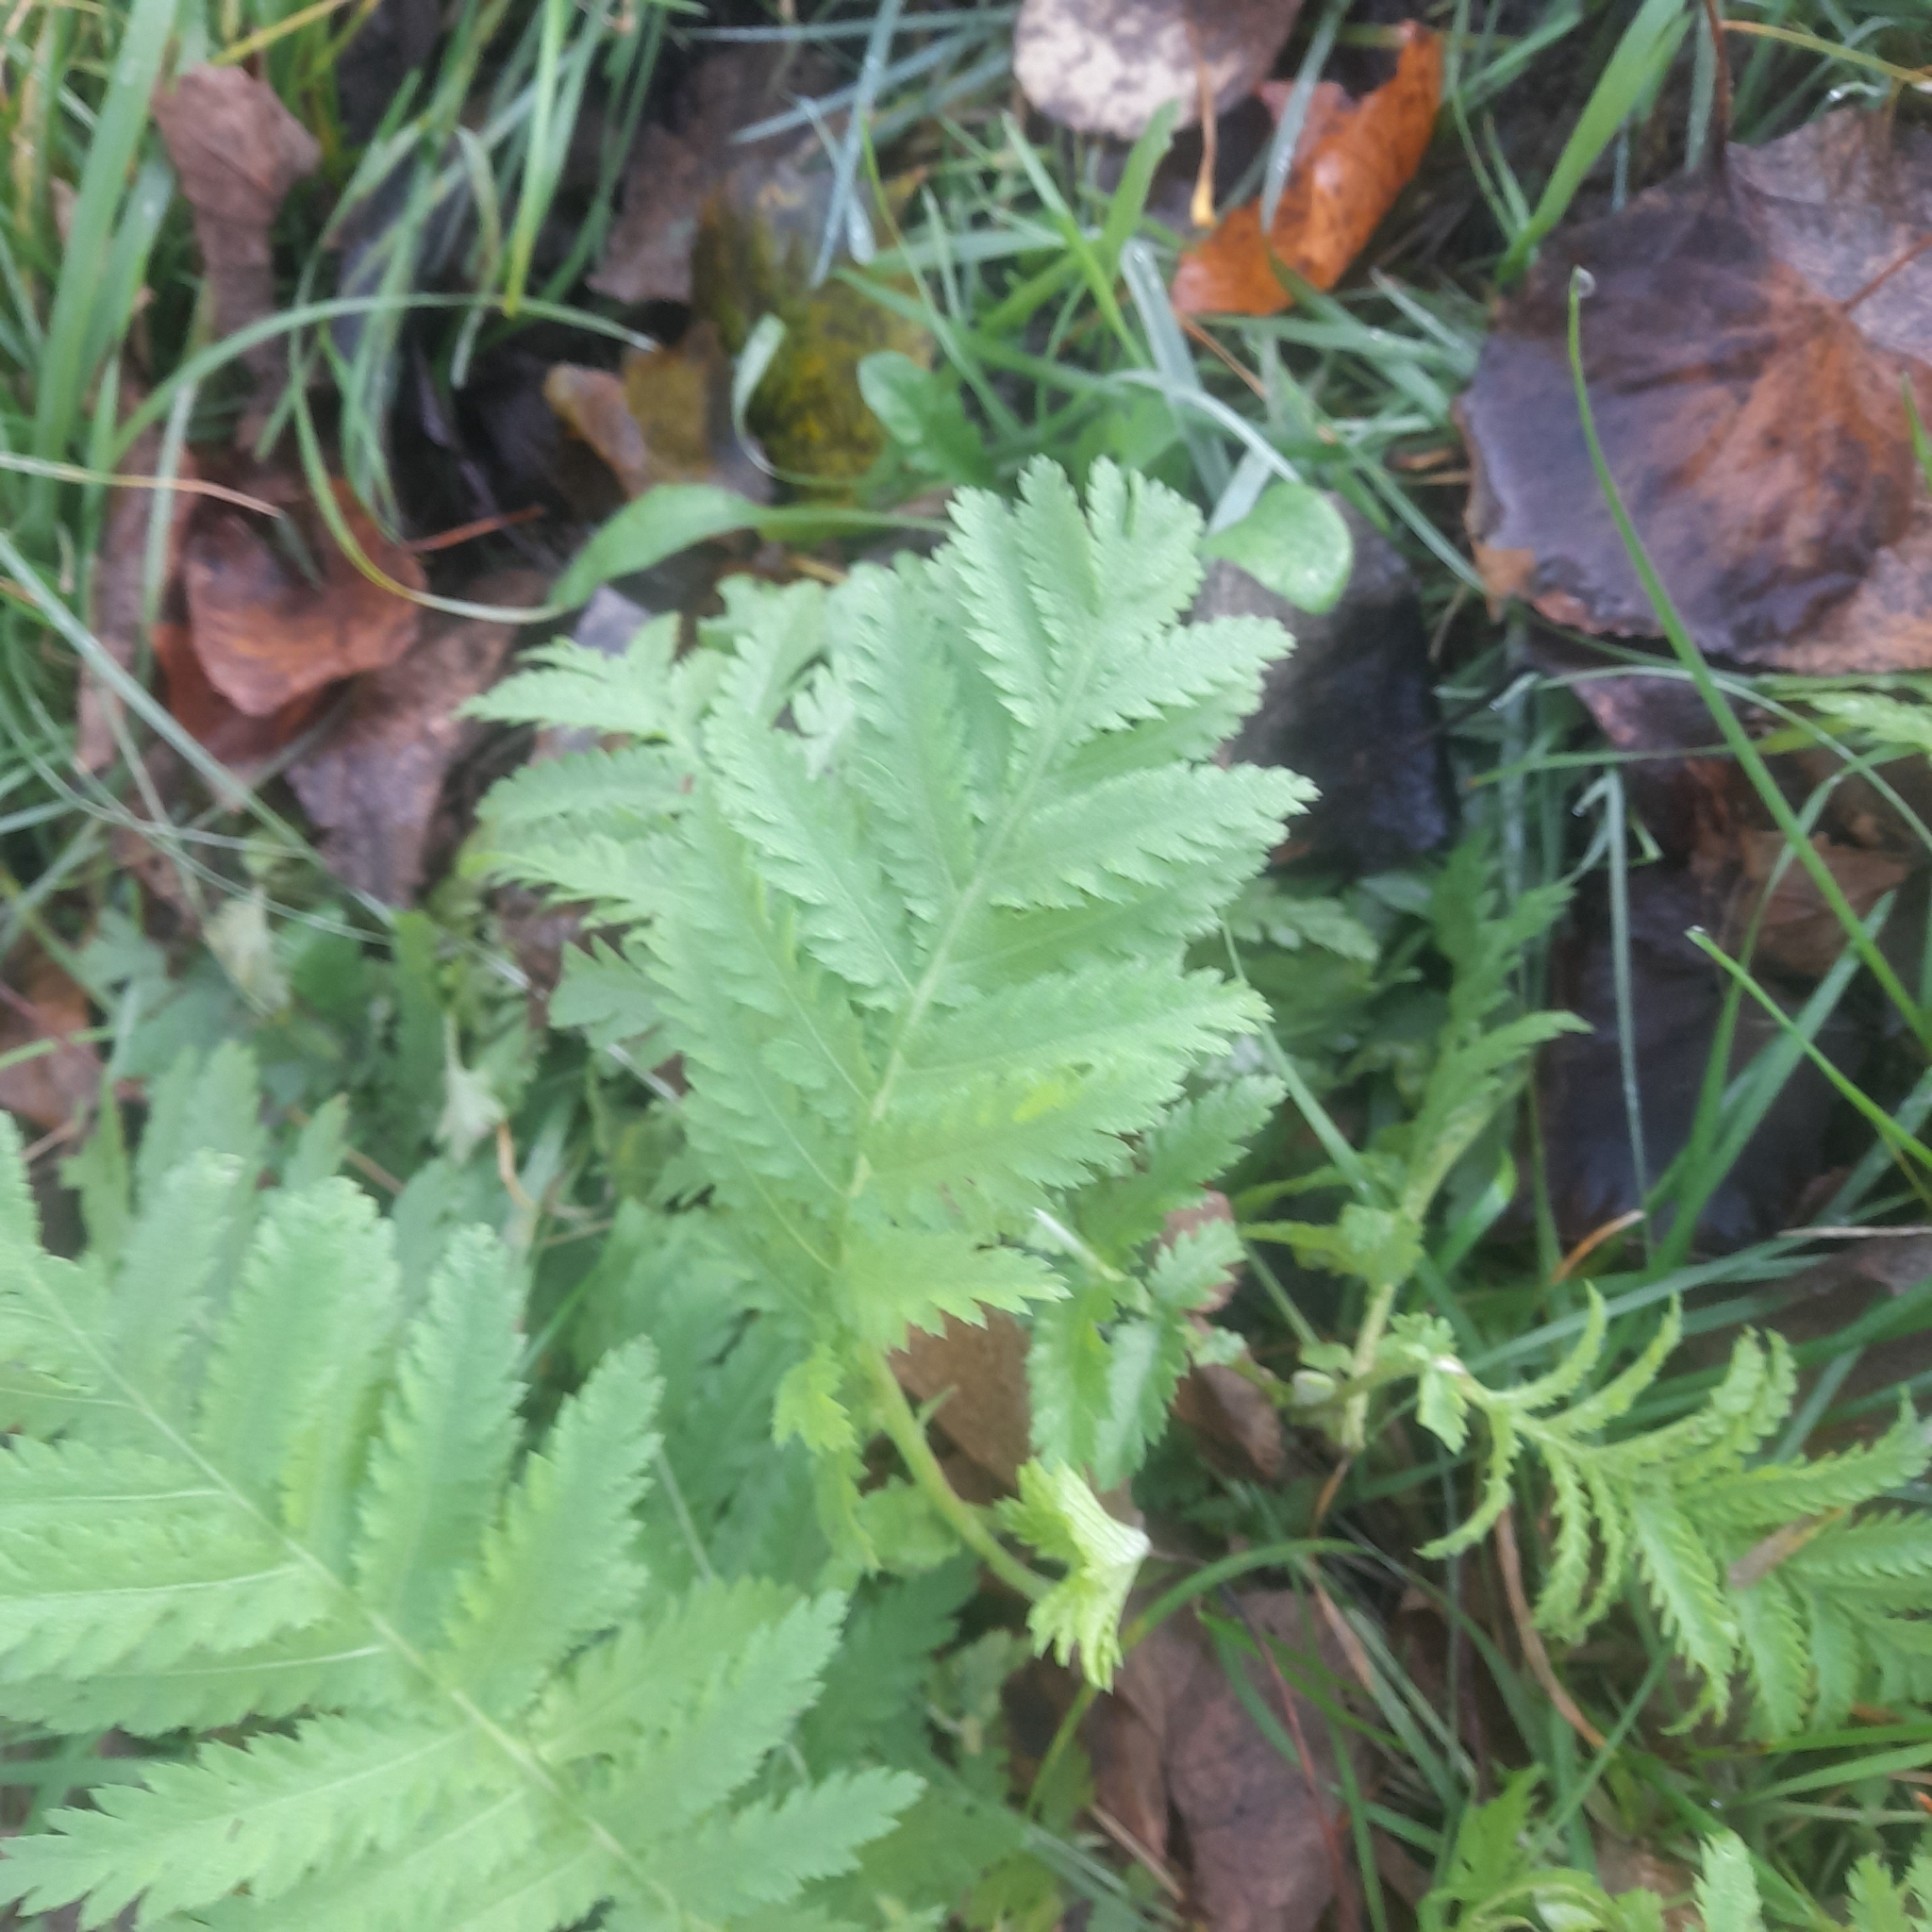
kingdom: Plantae
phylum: Tracheophyta
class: Magnoliopsida
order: Asterales
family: Asteraceae
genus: Tanacetum
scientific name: Tanacetum vulgare
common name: Common tansy
